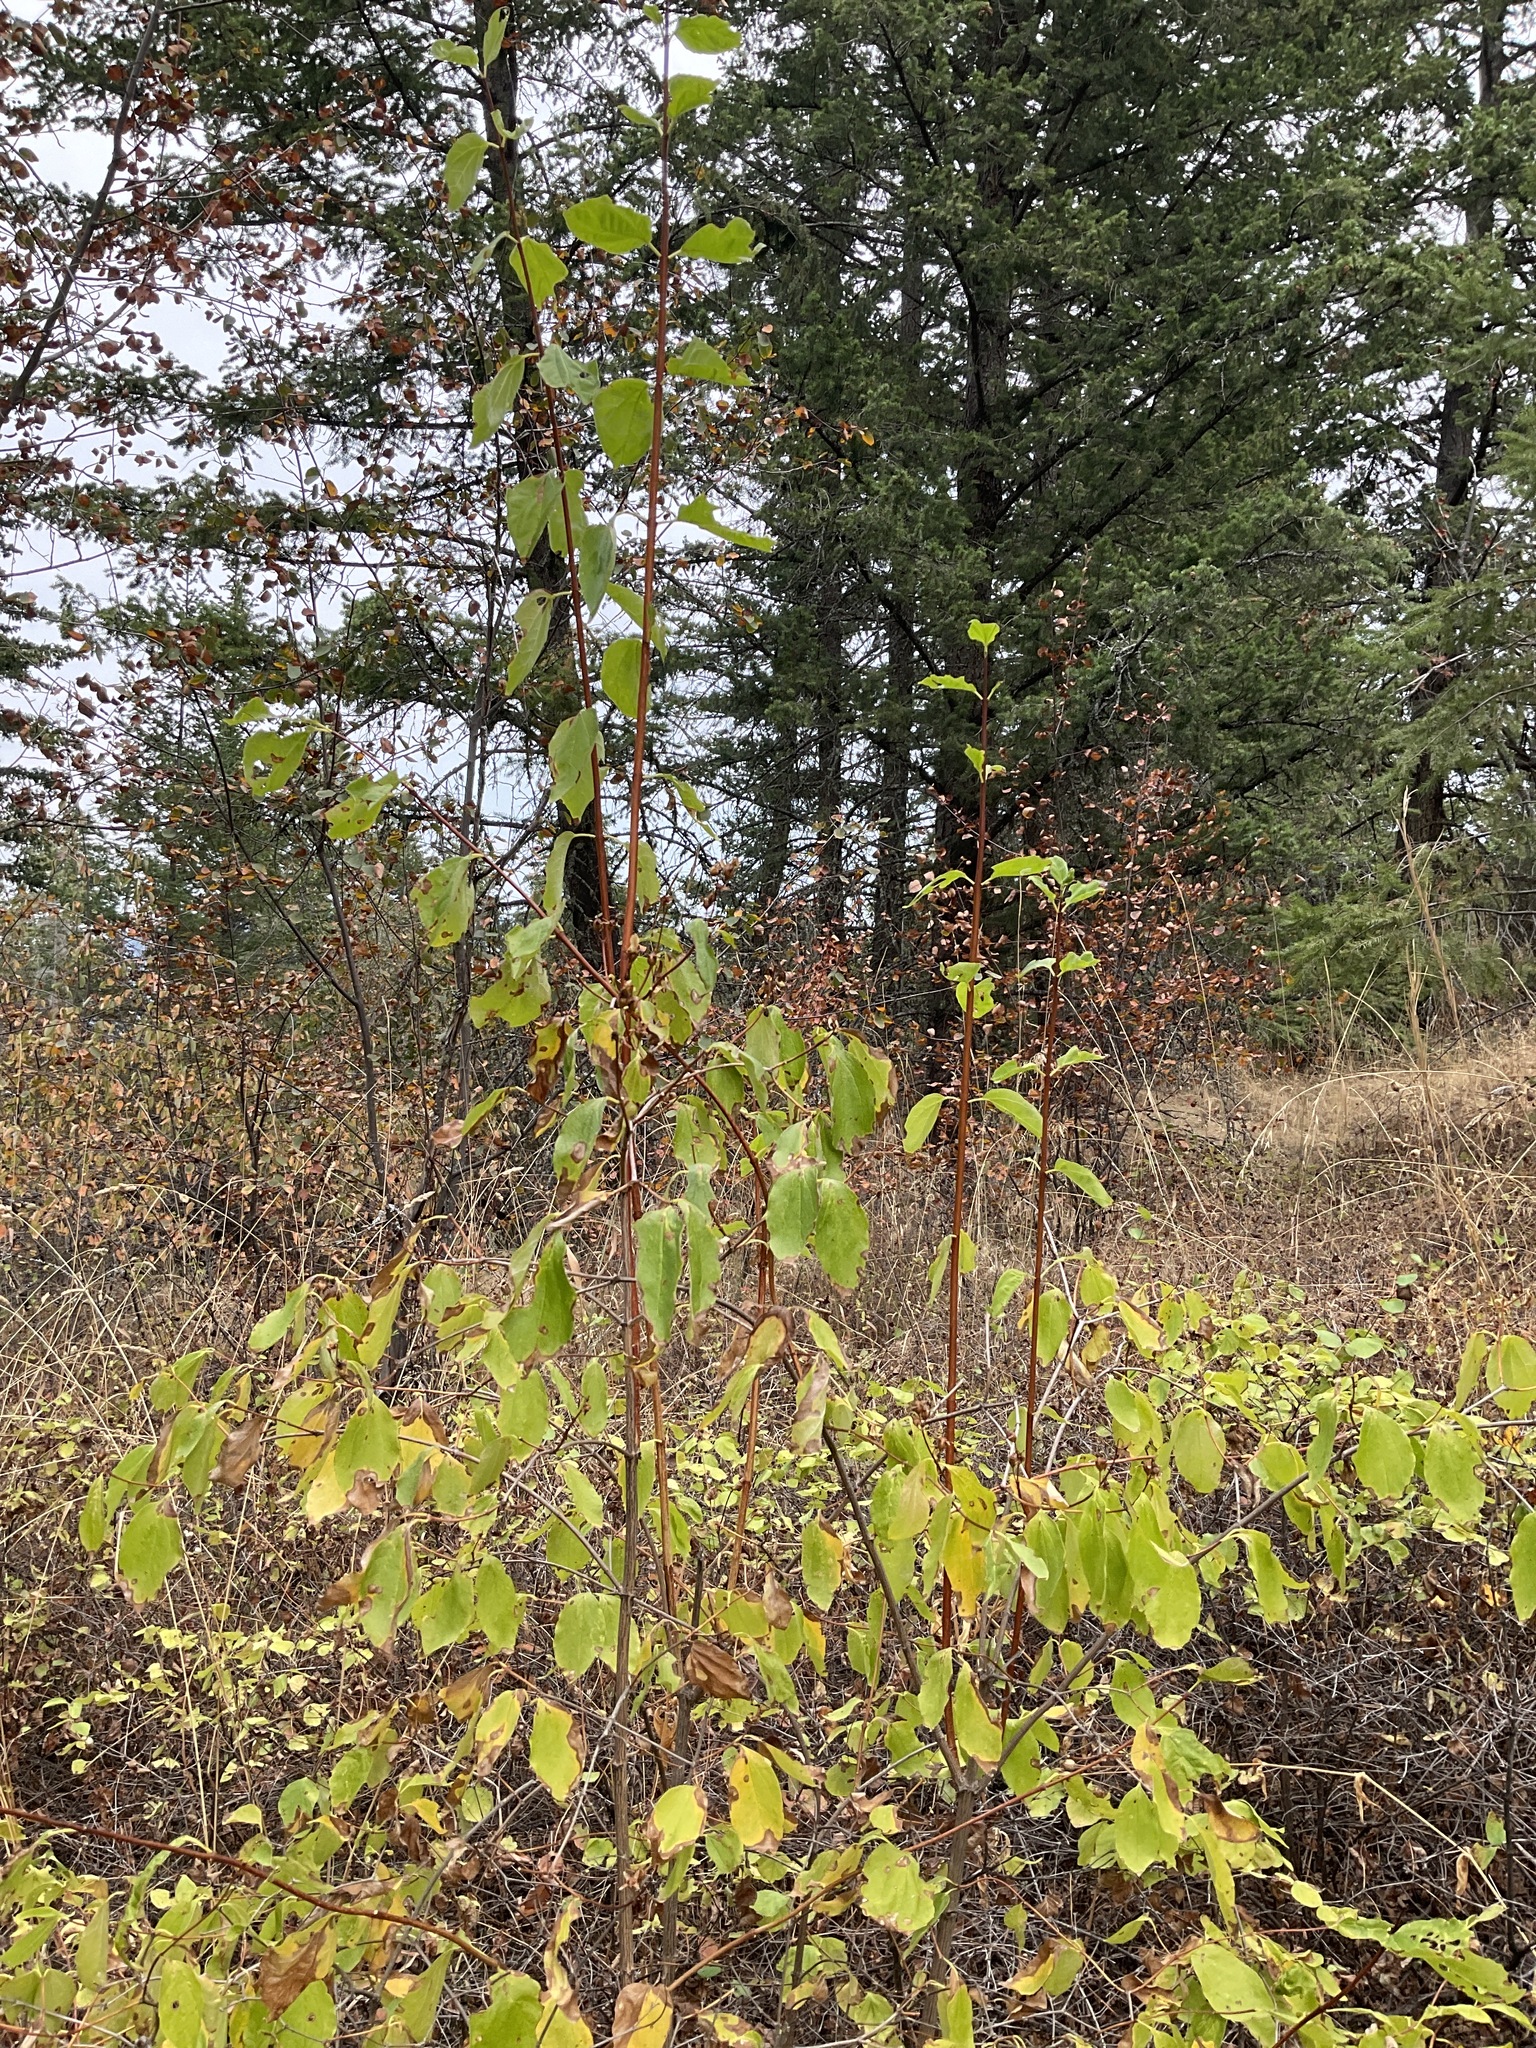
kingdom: Plantae
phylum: Tracheophyta
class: Magnoliopsida
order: Cornales
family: Hydrangeaceae
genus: Philadelphus
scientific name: Philadelphus lewisii
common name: Lewis's mock orange
